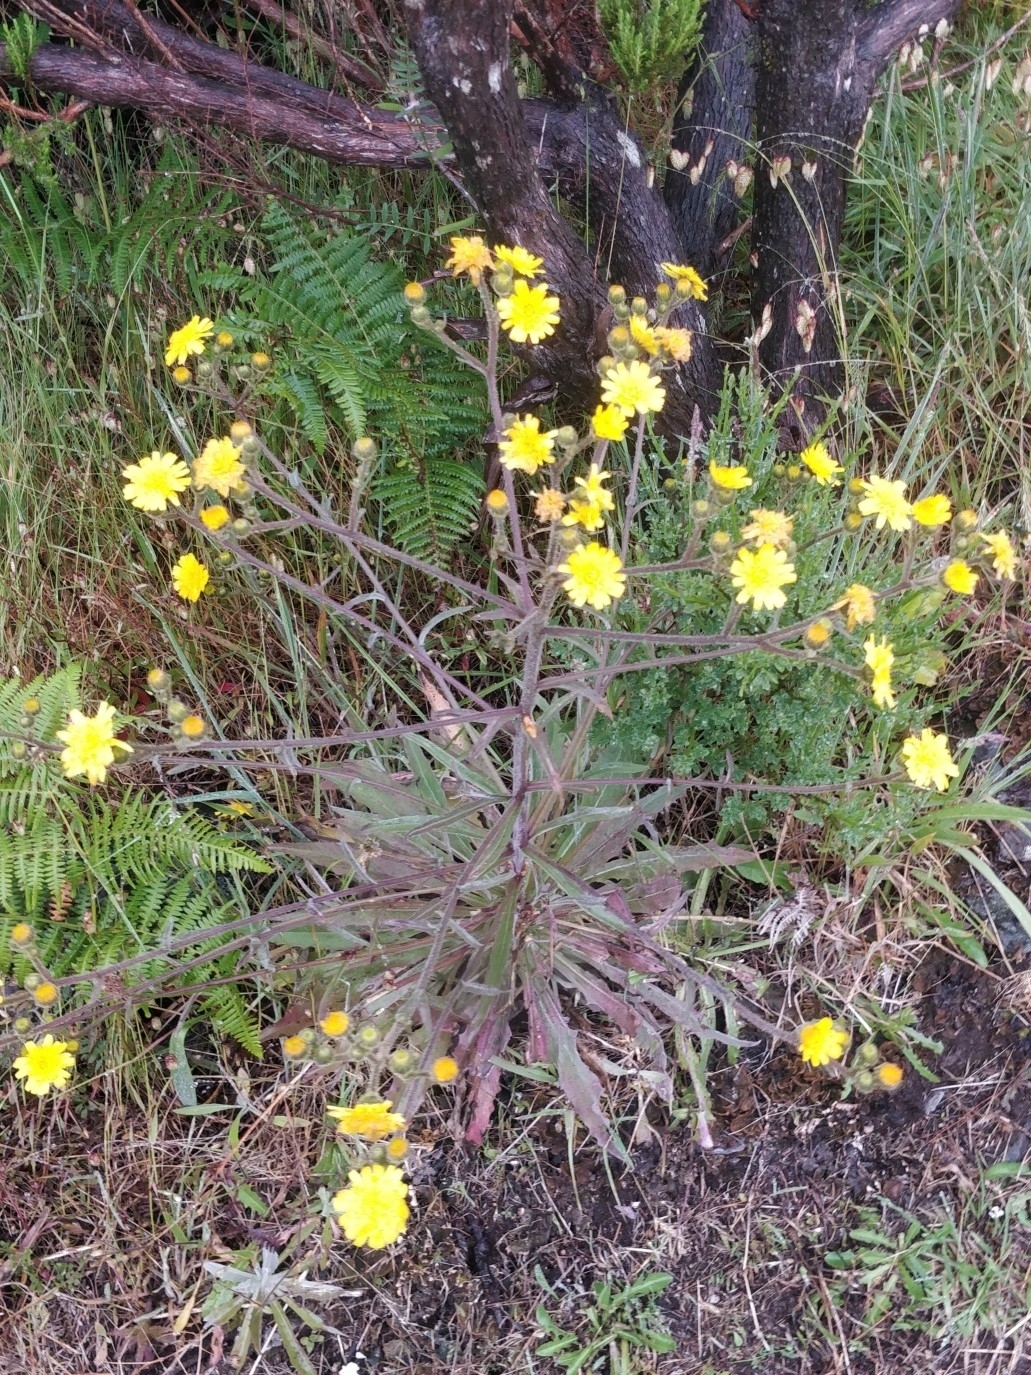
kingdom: Plantae
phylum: Tracheophyta
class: Magnoliopsida
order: Asterales
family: Asteraceae
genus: Andryala
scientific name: Andryala glandulosa
